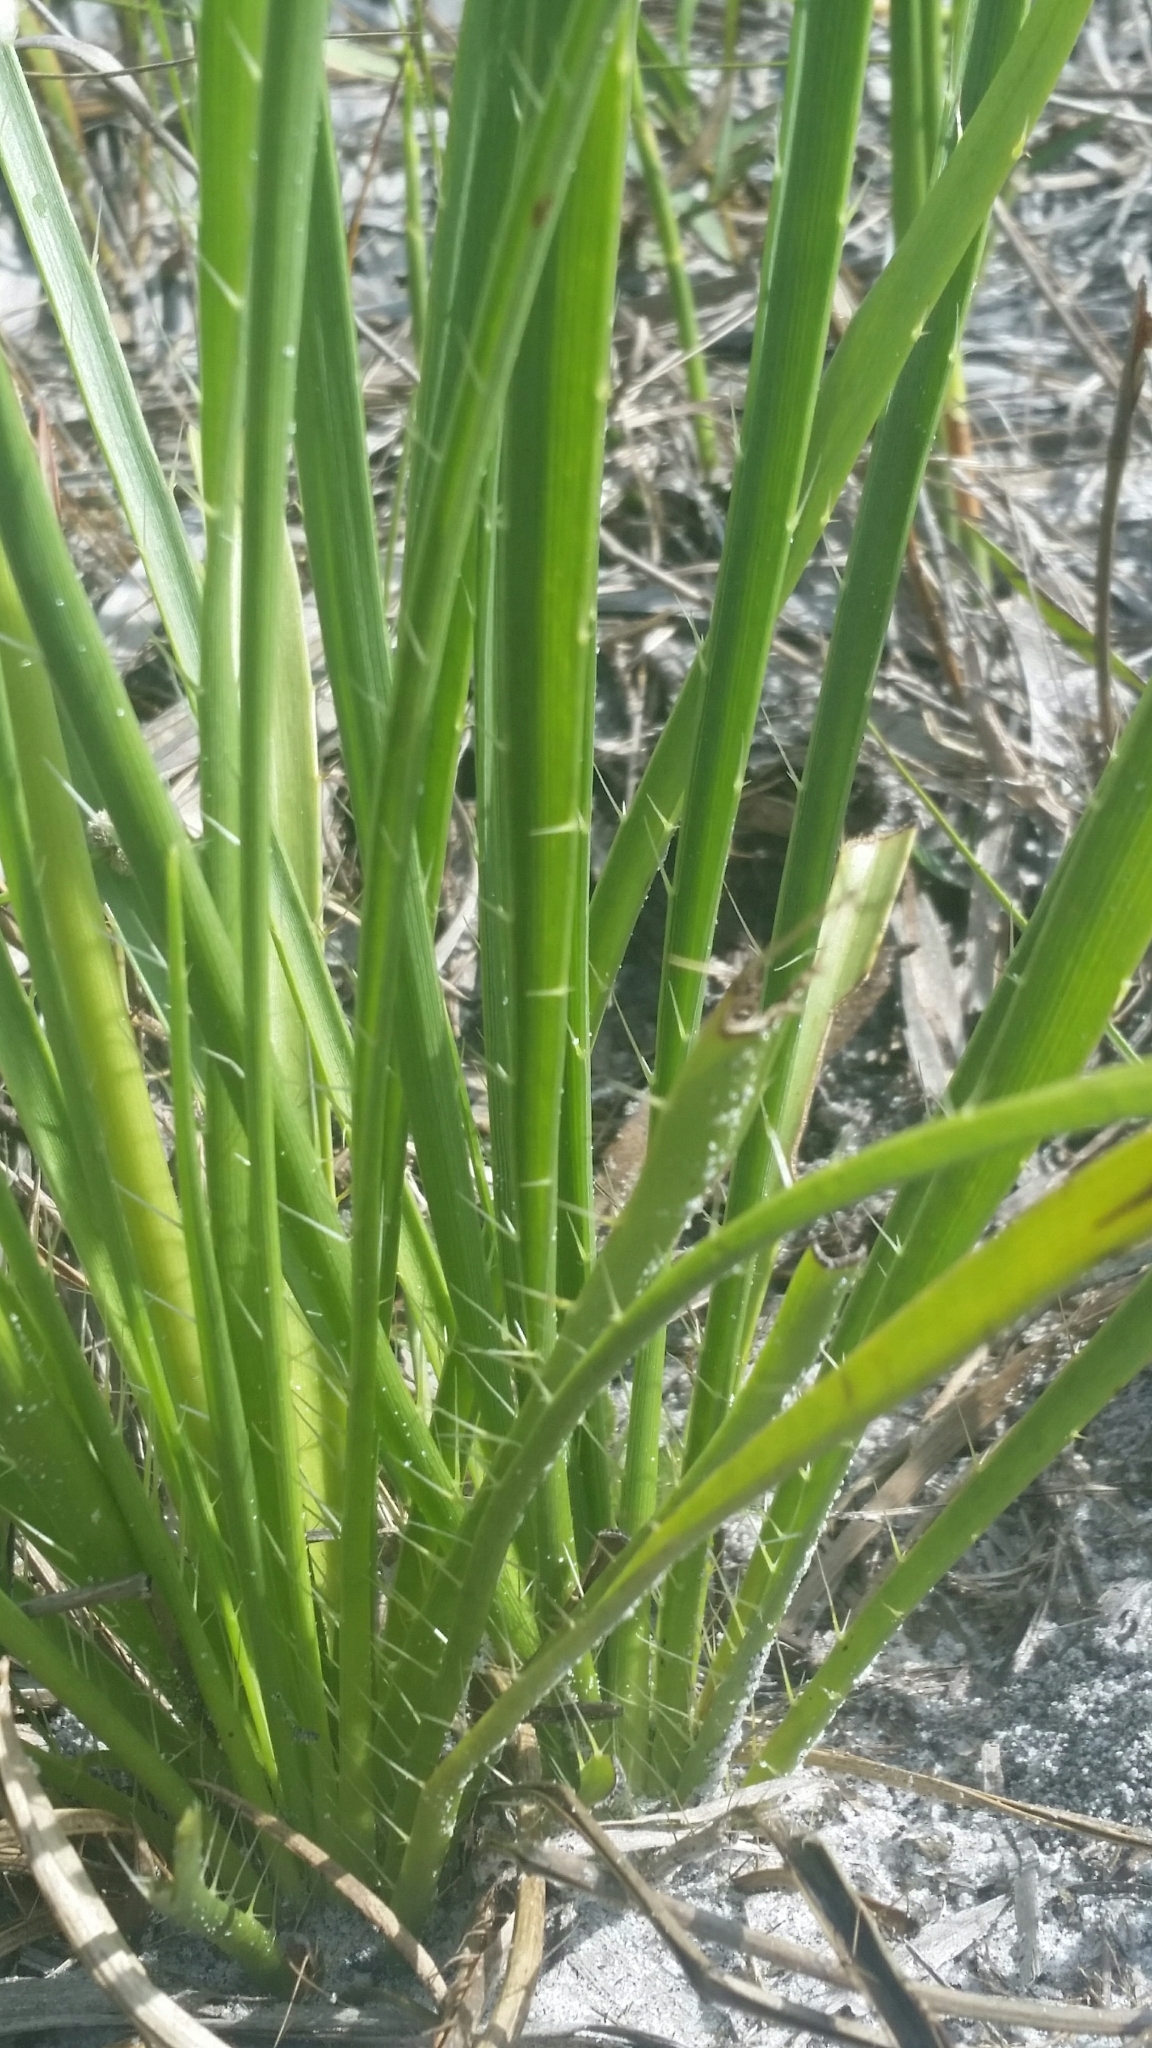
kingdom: Plantae
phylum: Tracheophyta
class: Magnoliopsida
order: Apiales
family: Apiaceae
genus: Eryngium
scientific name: Eryngium yuccifolium
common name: Button eryngo
